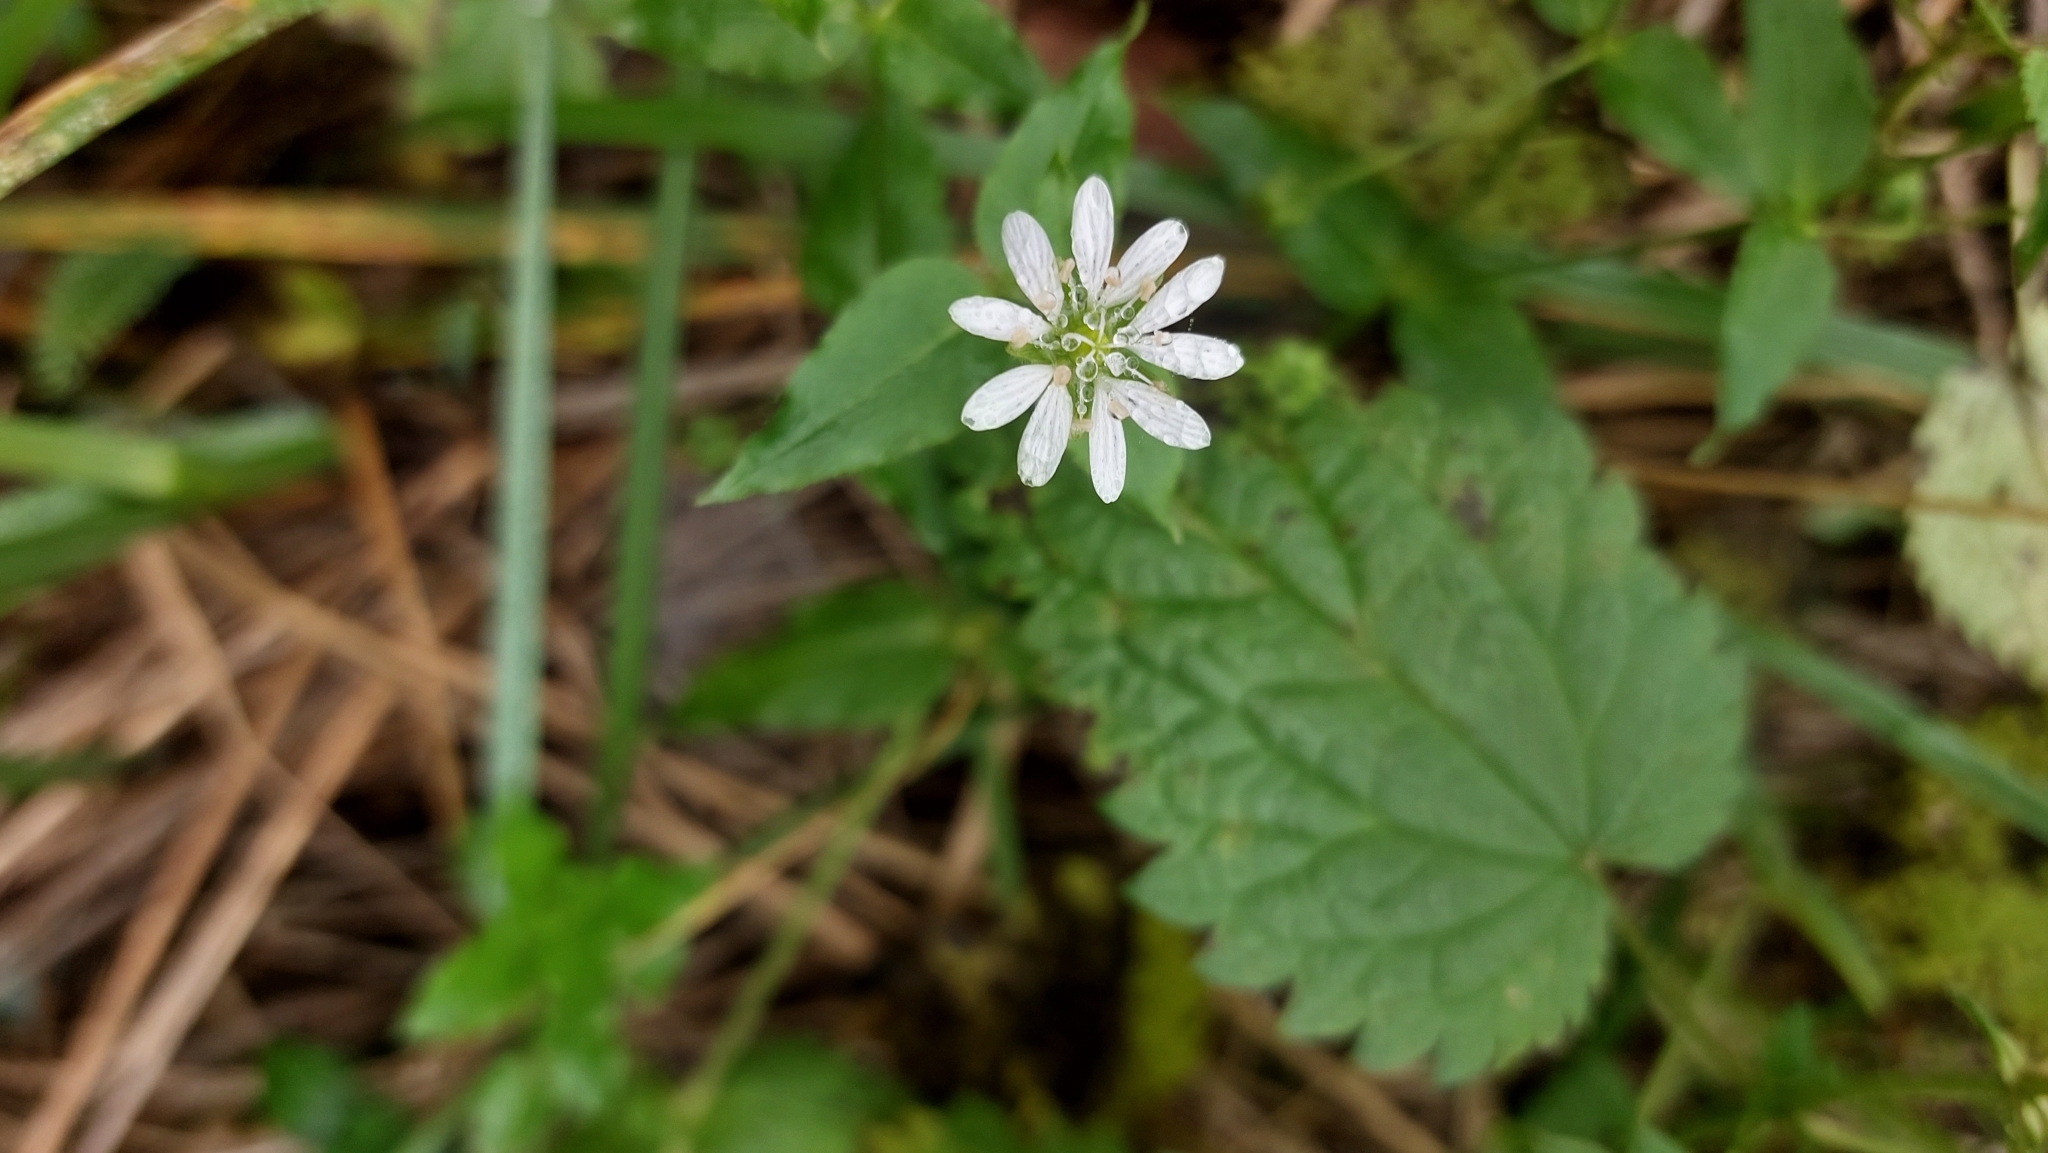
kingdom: Plantae
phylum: Tracheophyta
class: Magnoliopsida
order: Caryophyllales
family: Caryophyllaceae
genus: Stellaria
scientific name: Stellaria aquatica
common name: Water chickweed
